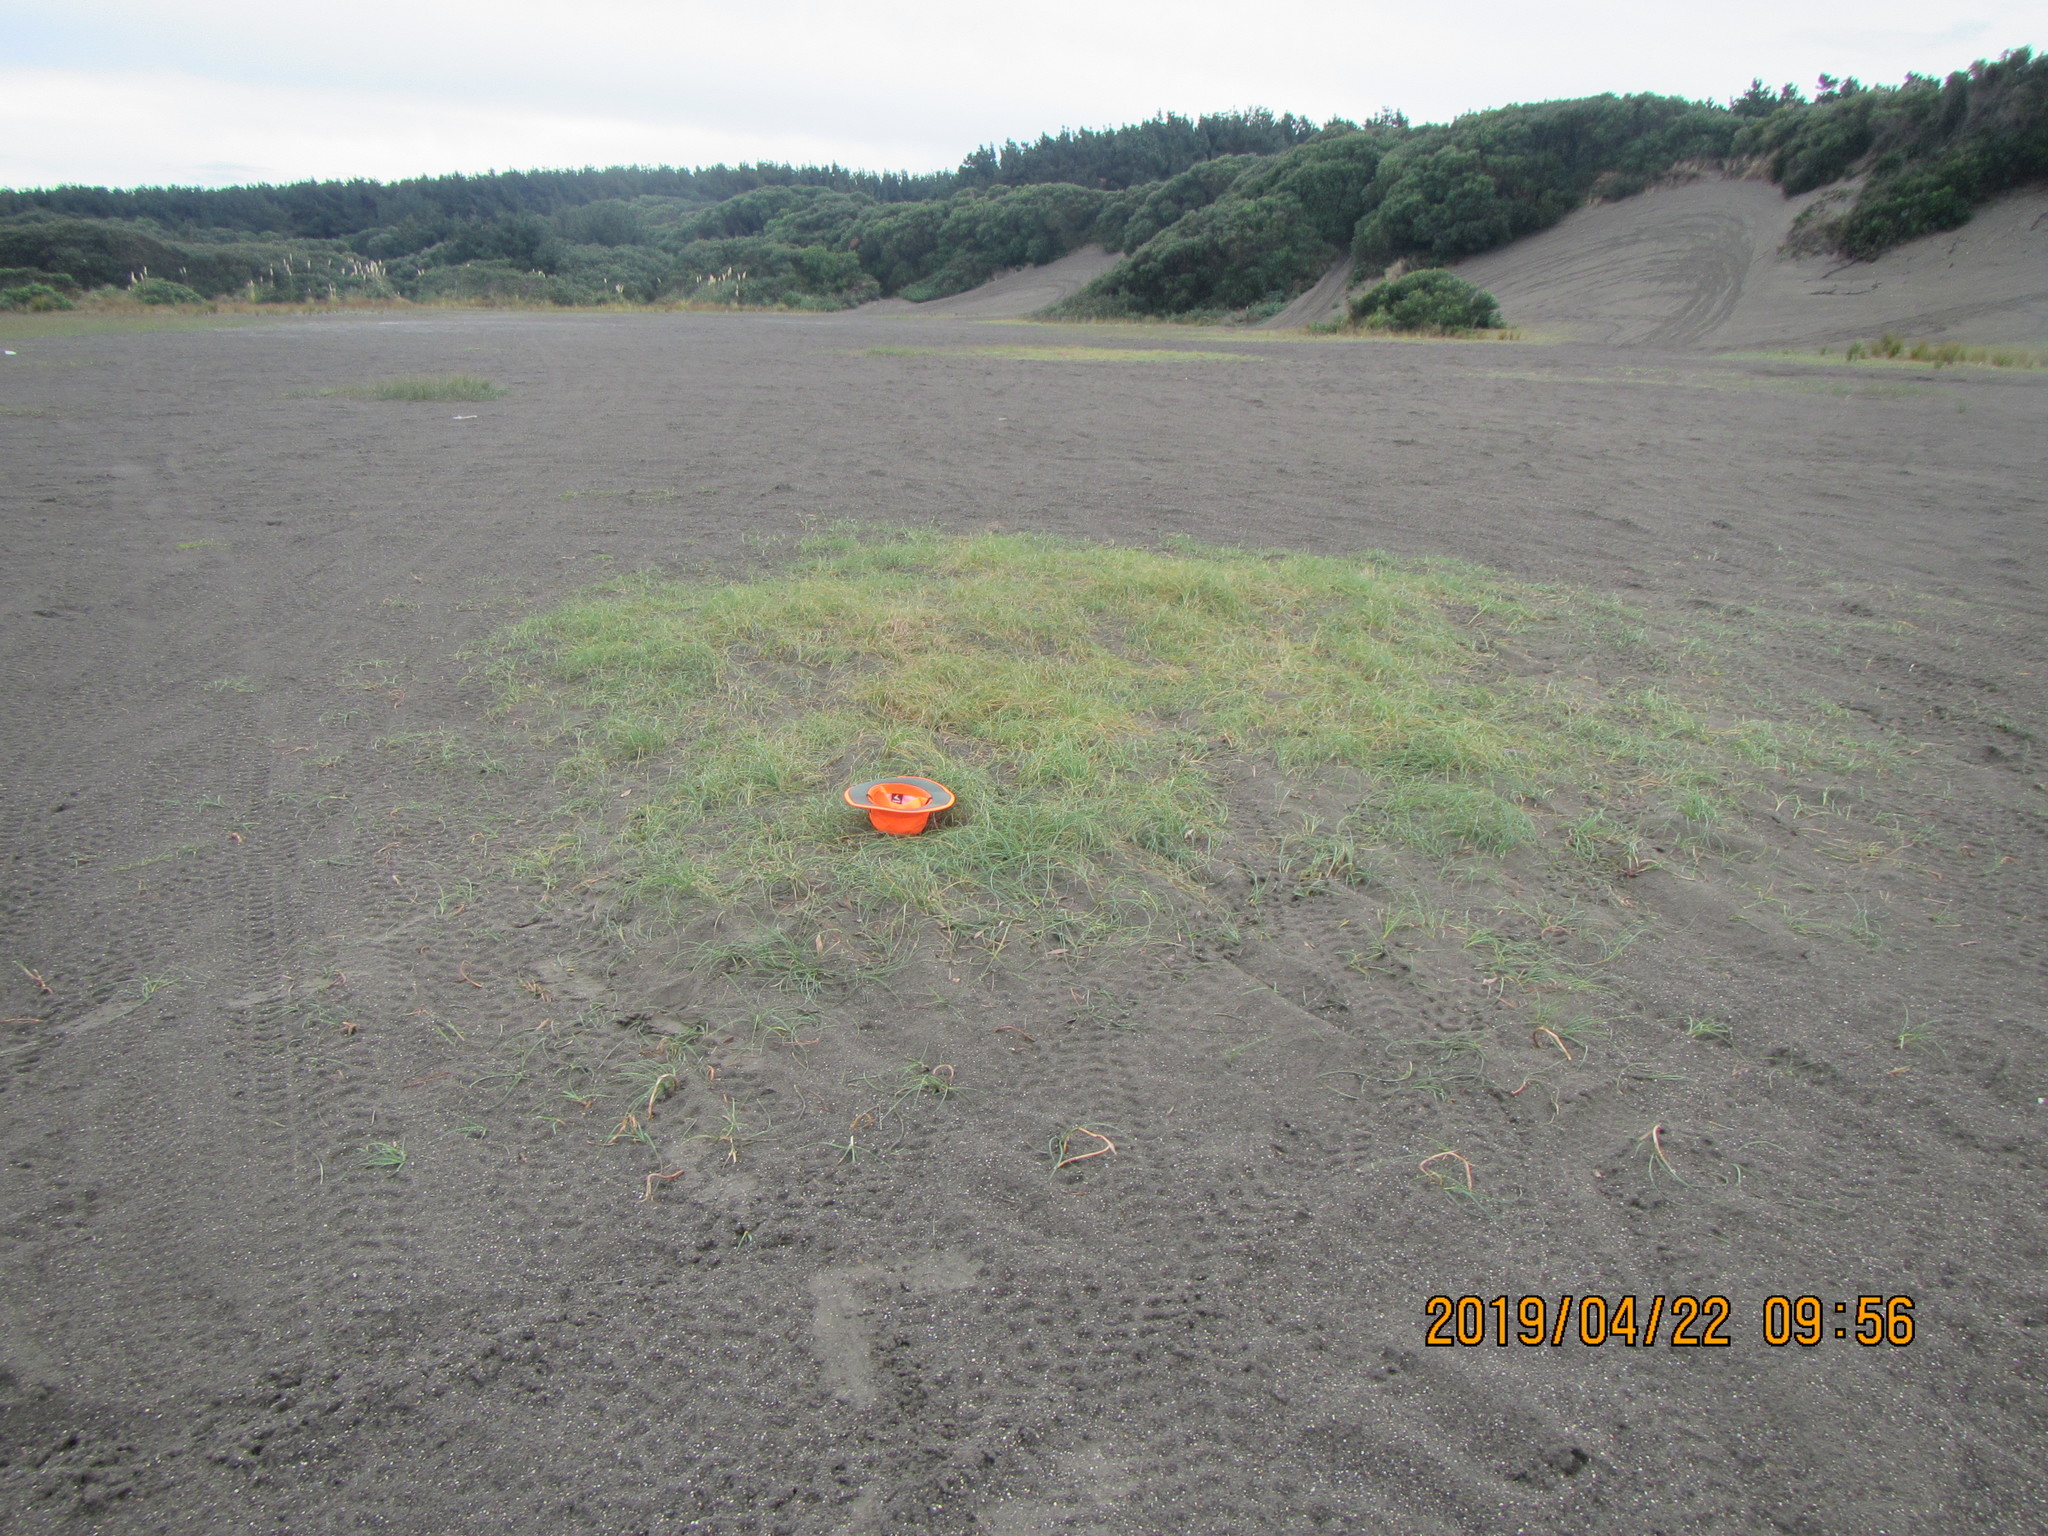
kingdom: Plantae
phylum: Tracheophyta
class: Liliopsida
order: Poales
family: Cyperaceae
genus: Carex
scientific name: Carex pumila
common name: Dwarf sedge
